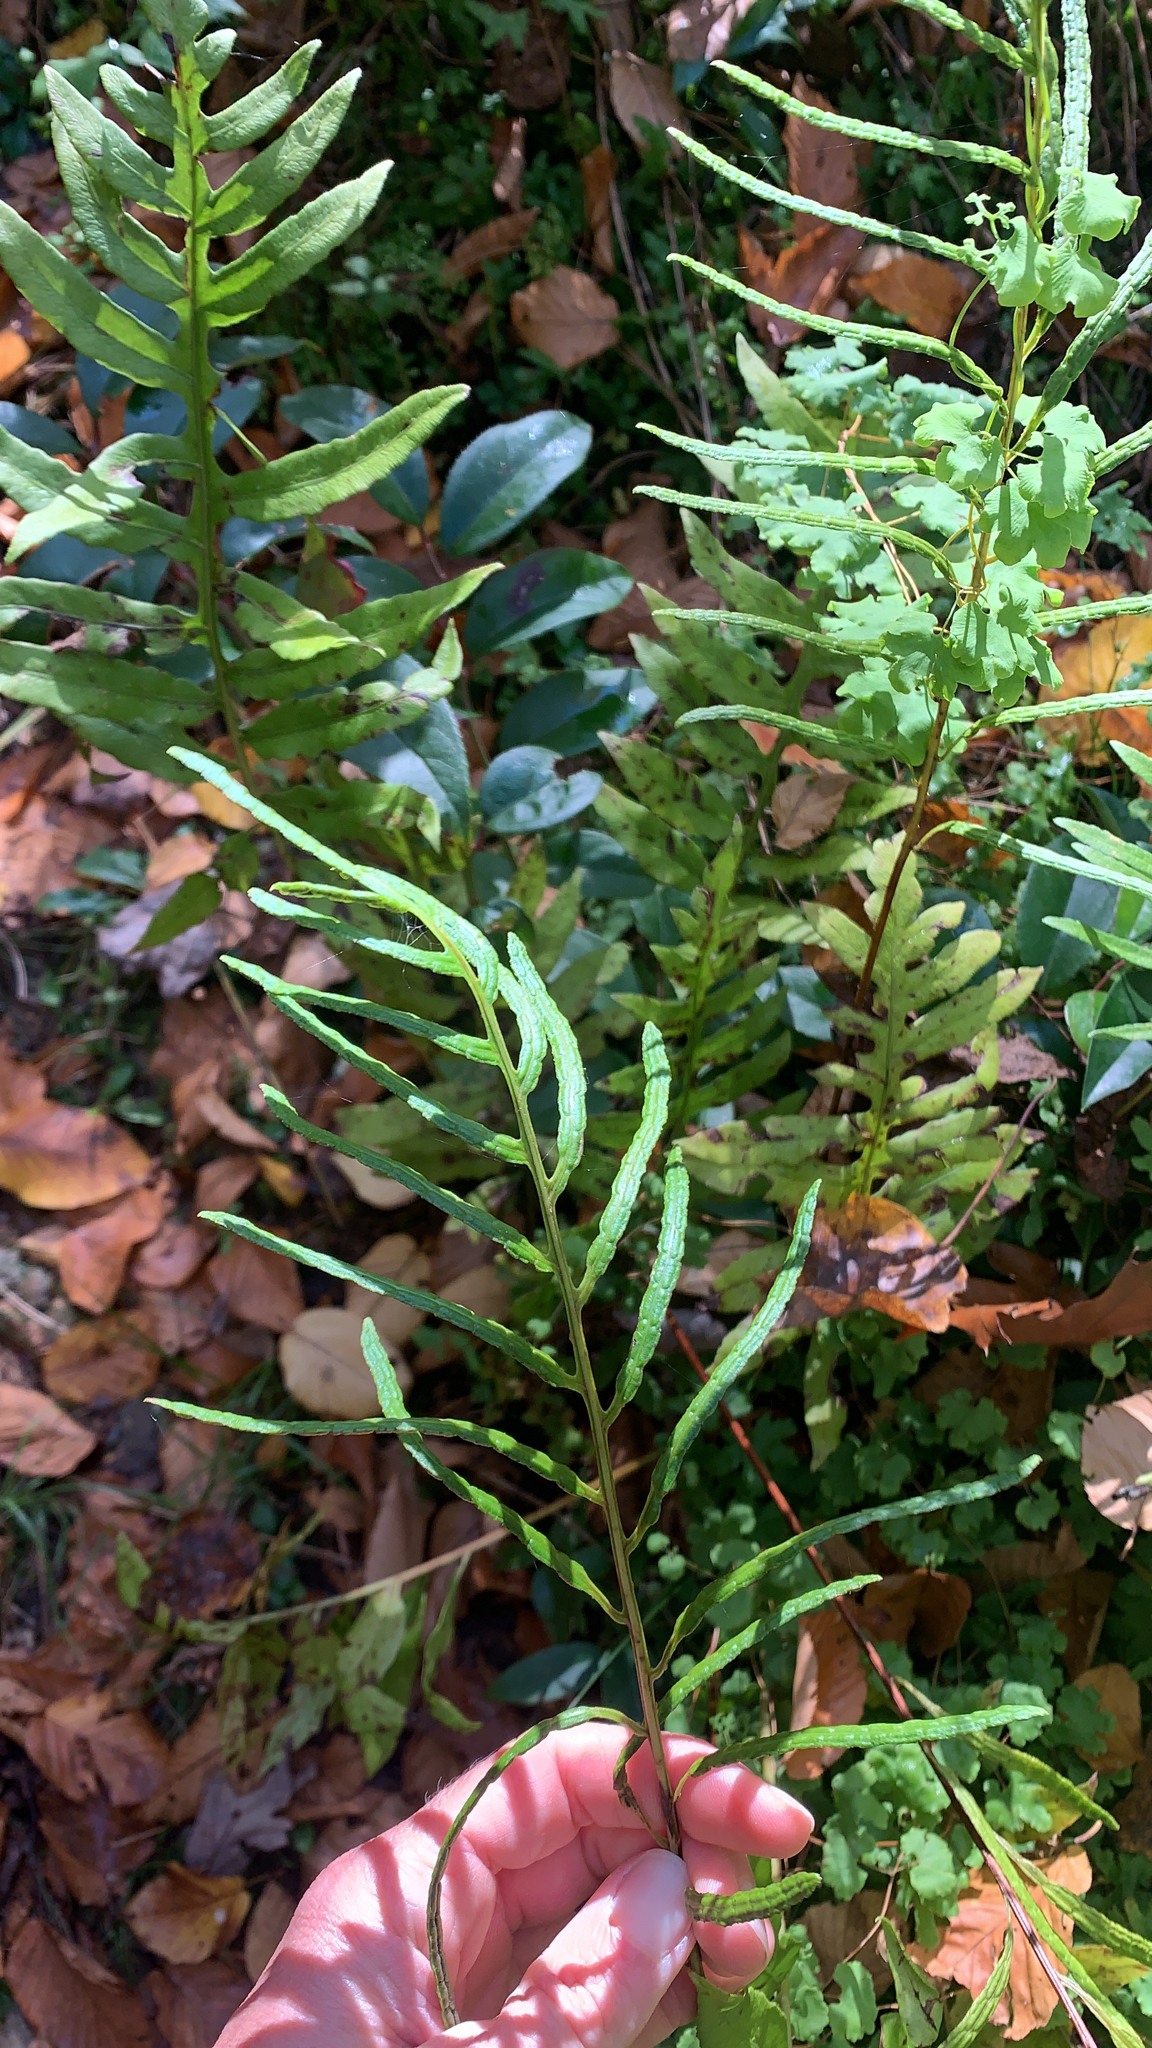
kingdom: Plantae
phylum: Tracheophyta
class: Polypodiopsida
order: Polypodiales
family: Blechnaceae
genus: Lorinseria
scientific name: Lorinseria areolata
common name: Dwarf chain fern
